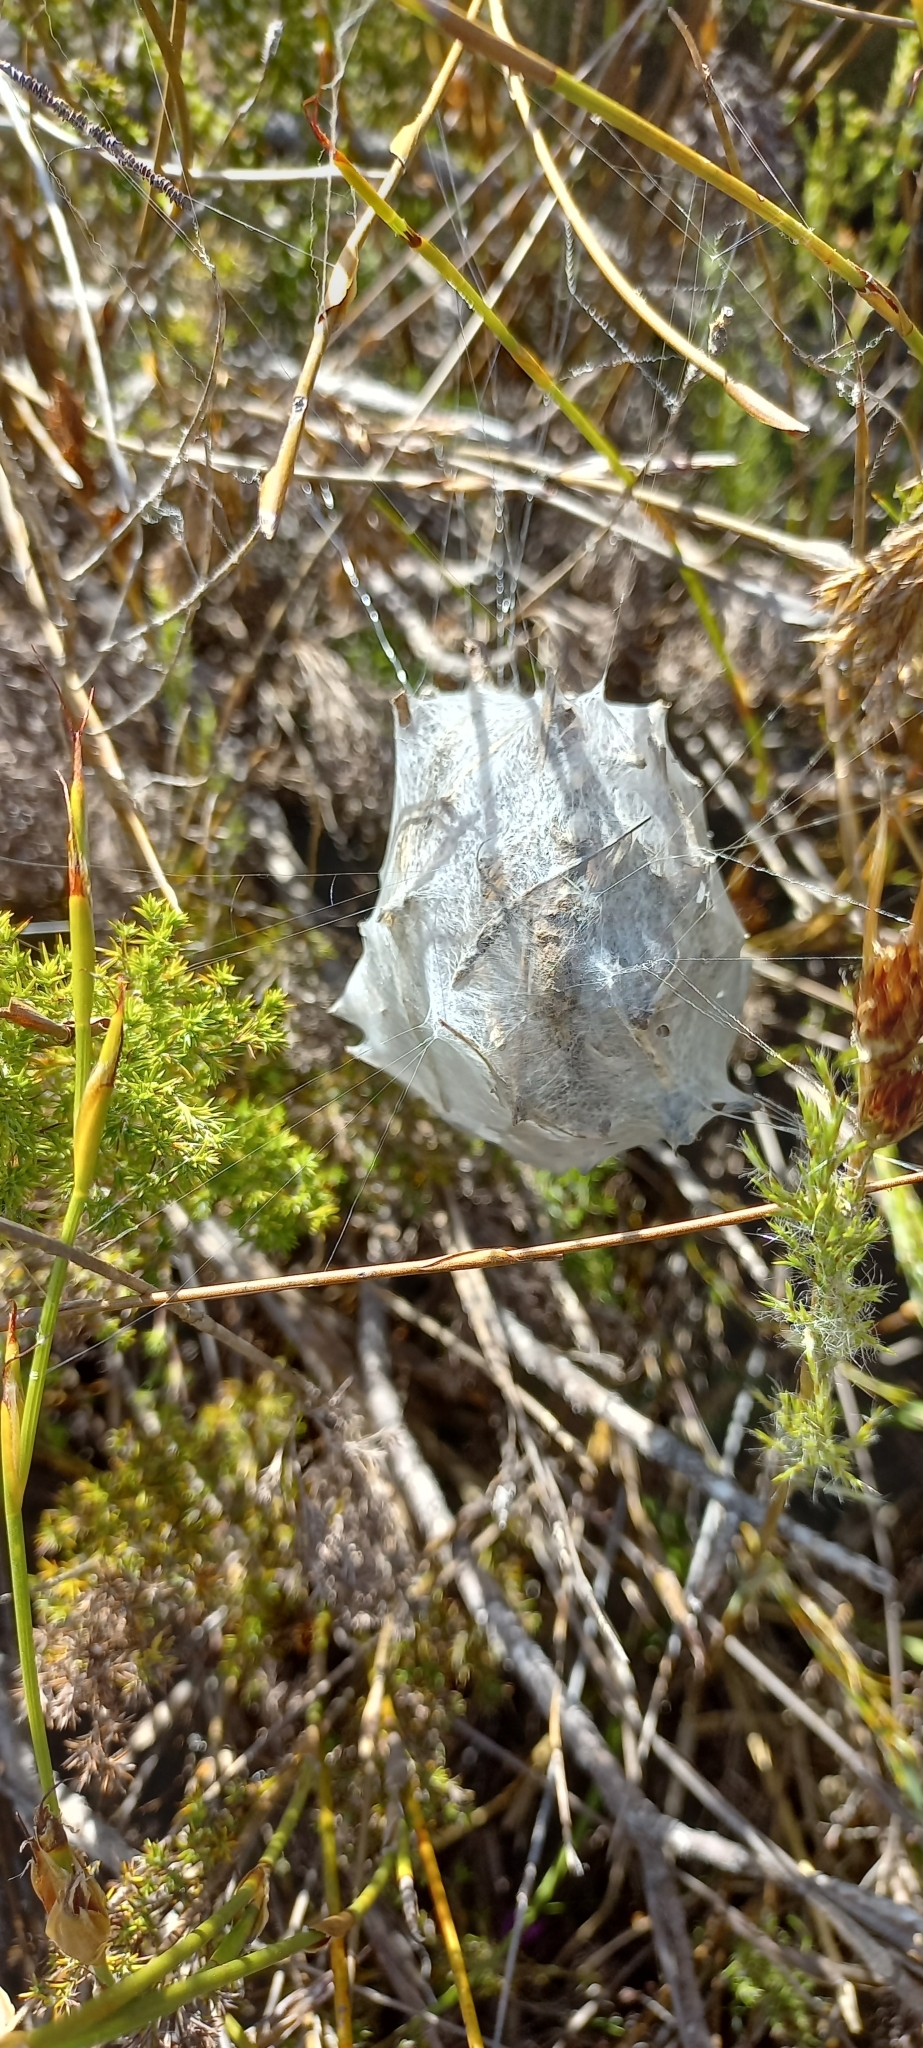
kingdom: Animalia
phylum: Arthropoda
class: Arachnida
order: Araneae
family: Sparassidae
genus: Palystes
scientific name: Palystes superciliosus
